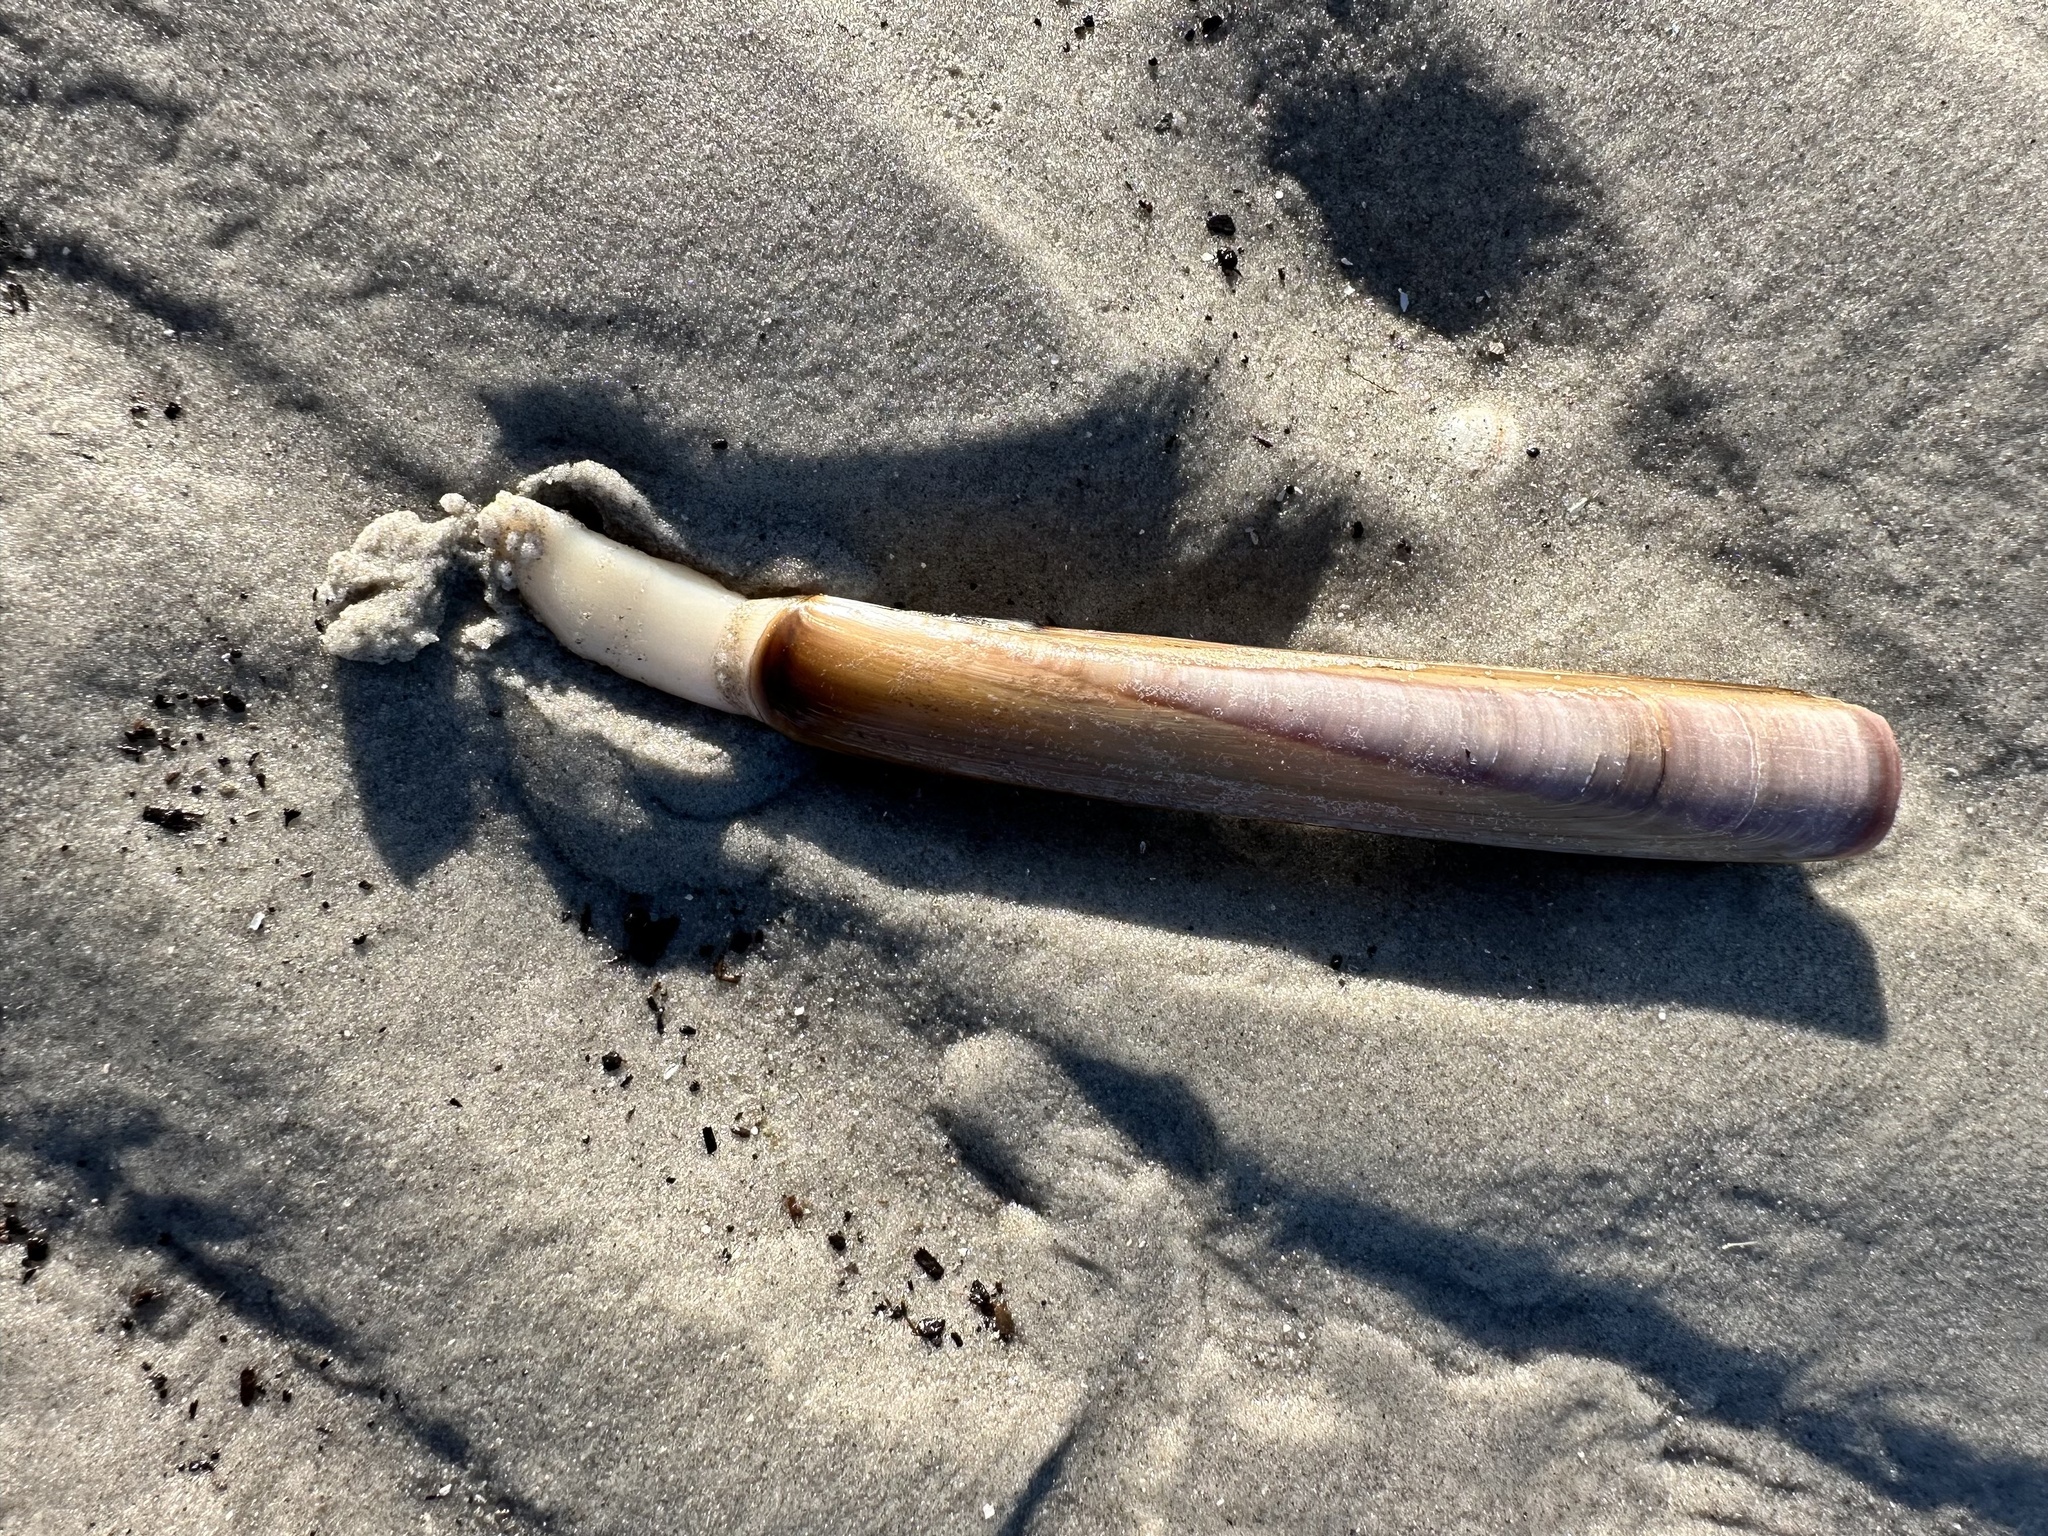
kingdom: Animalia
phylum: Mollusca
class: Bivalvia
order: Adapedonta
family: Pharidae
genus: Ensis
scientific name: Ensis leei
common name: American jack knife clam
